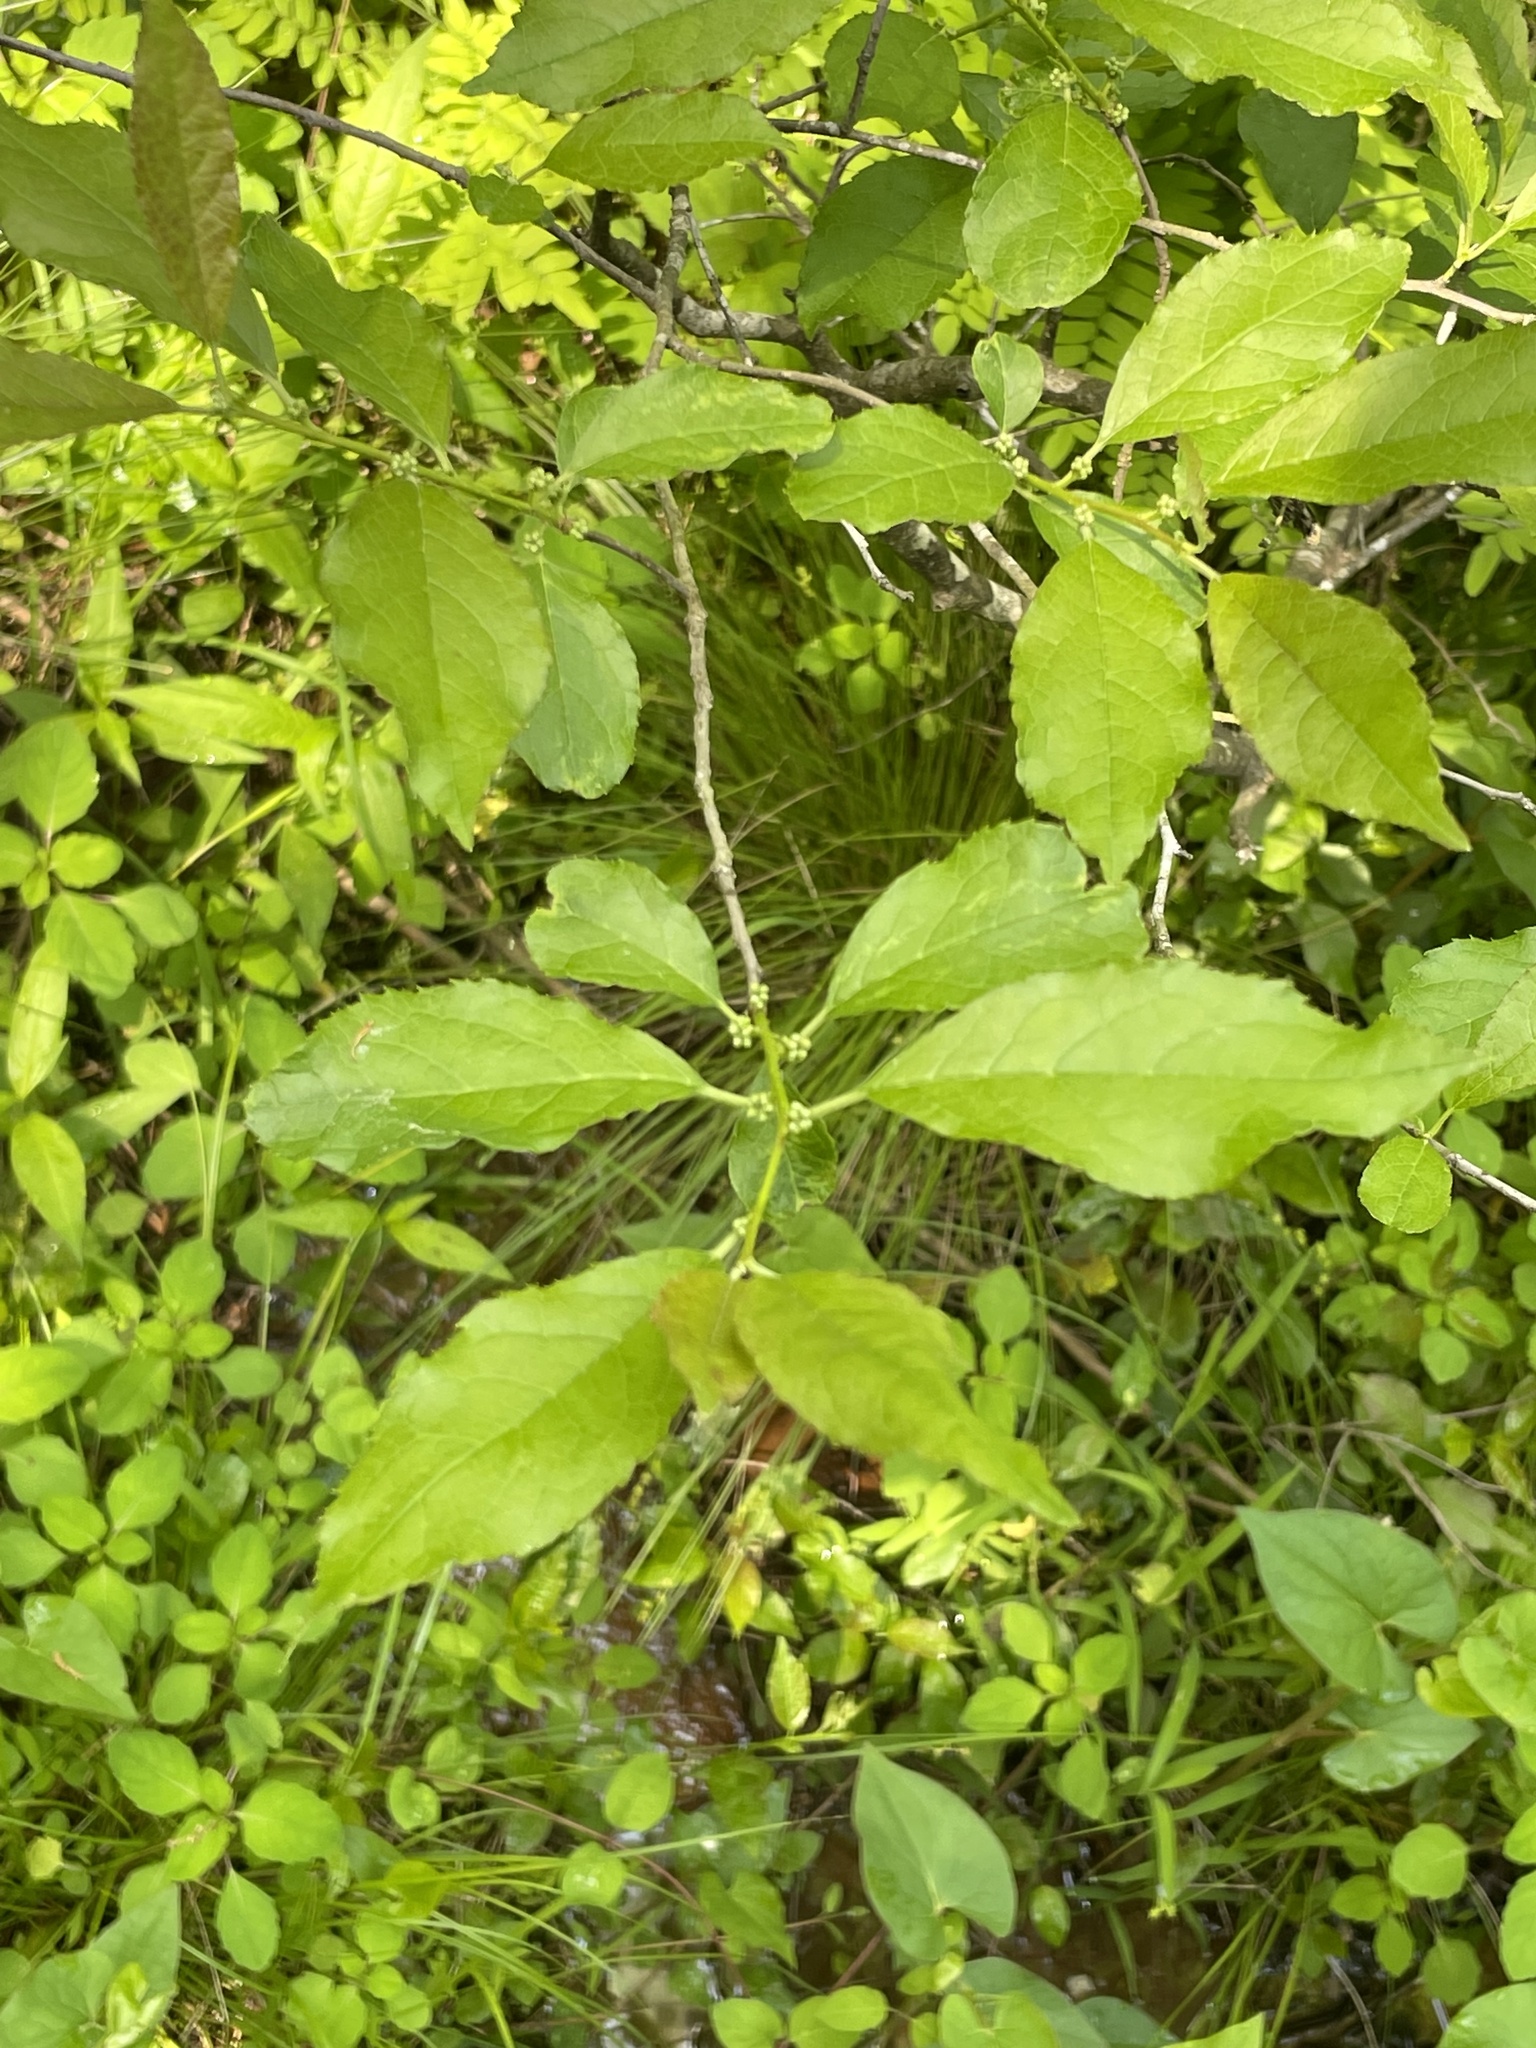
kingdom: Plantae
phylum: Tracheophyta
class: Magnoliopsida
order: Aquifoliales
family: Aquifoliaceae
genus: Ilex
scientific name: Ilex verticillata
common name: Virginia winterberry
